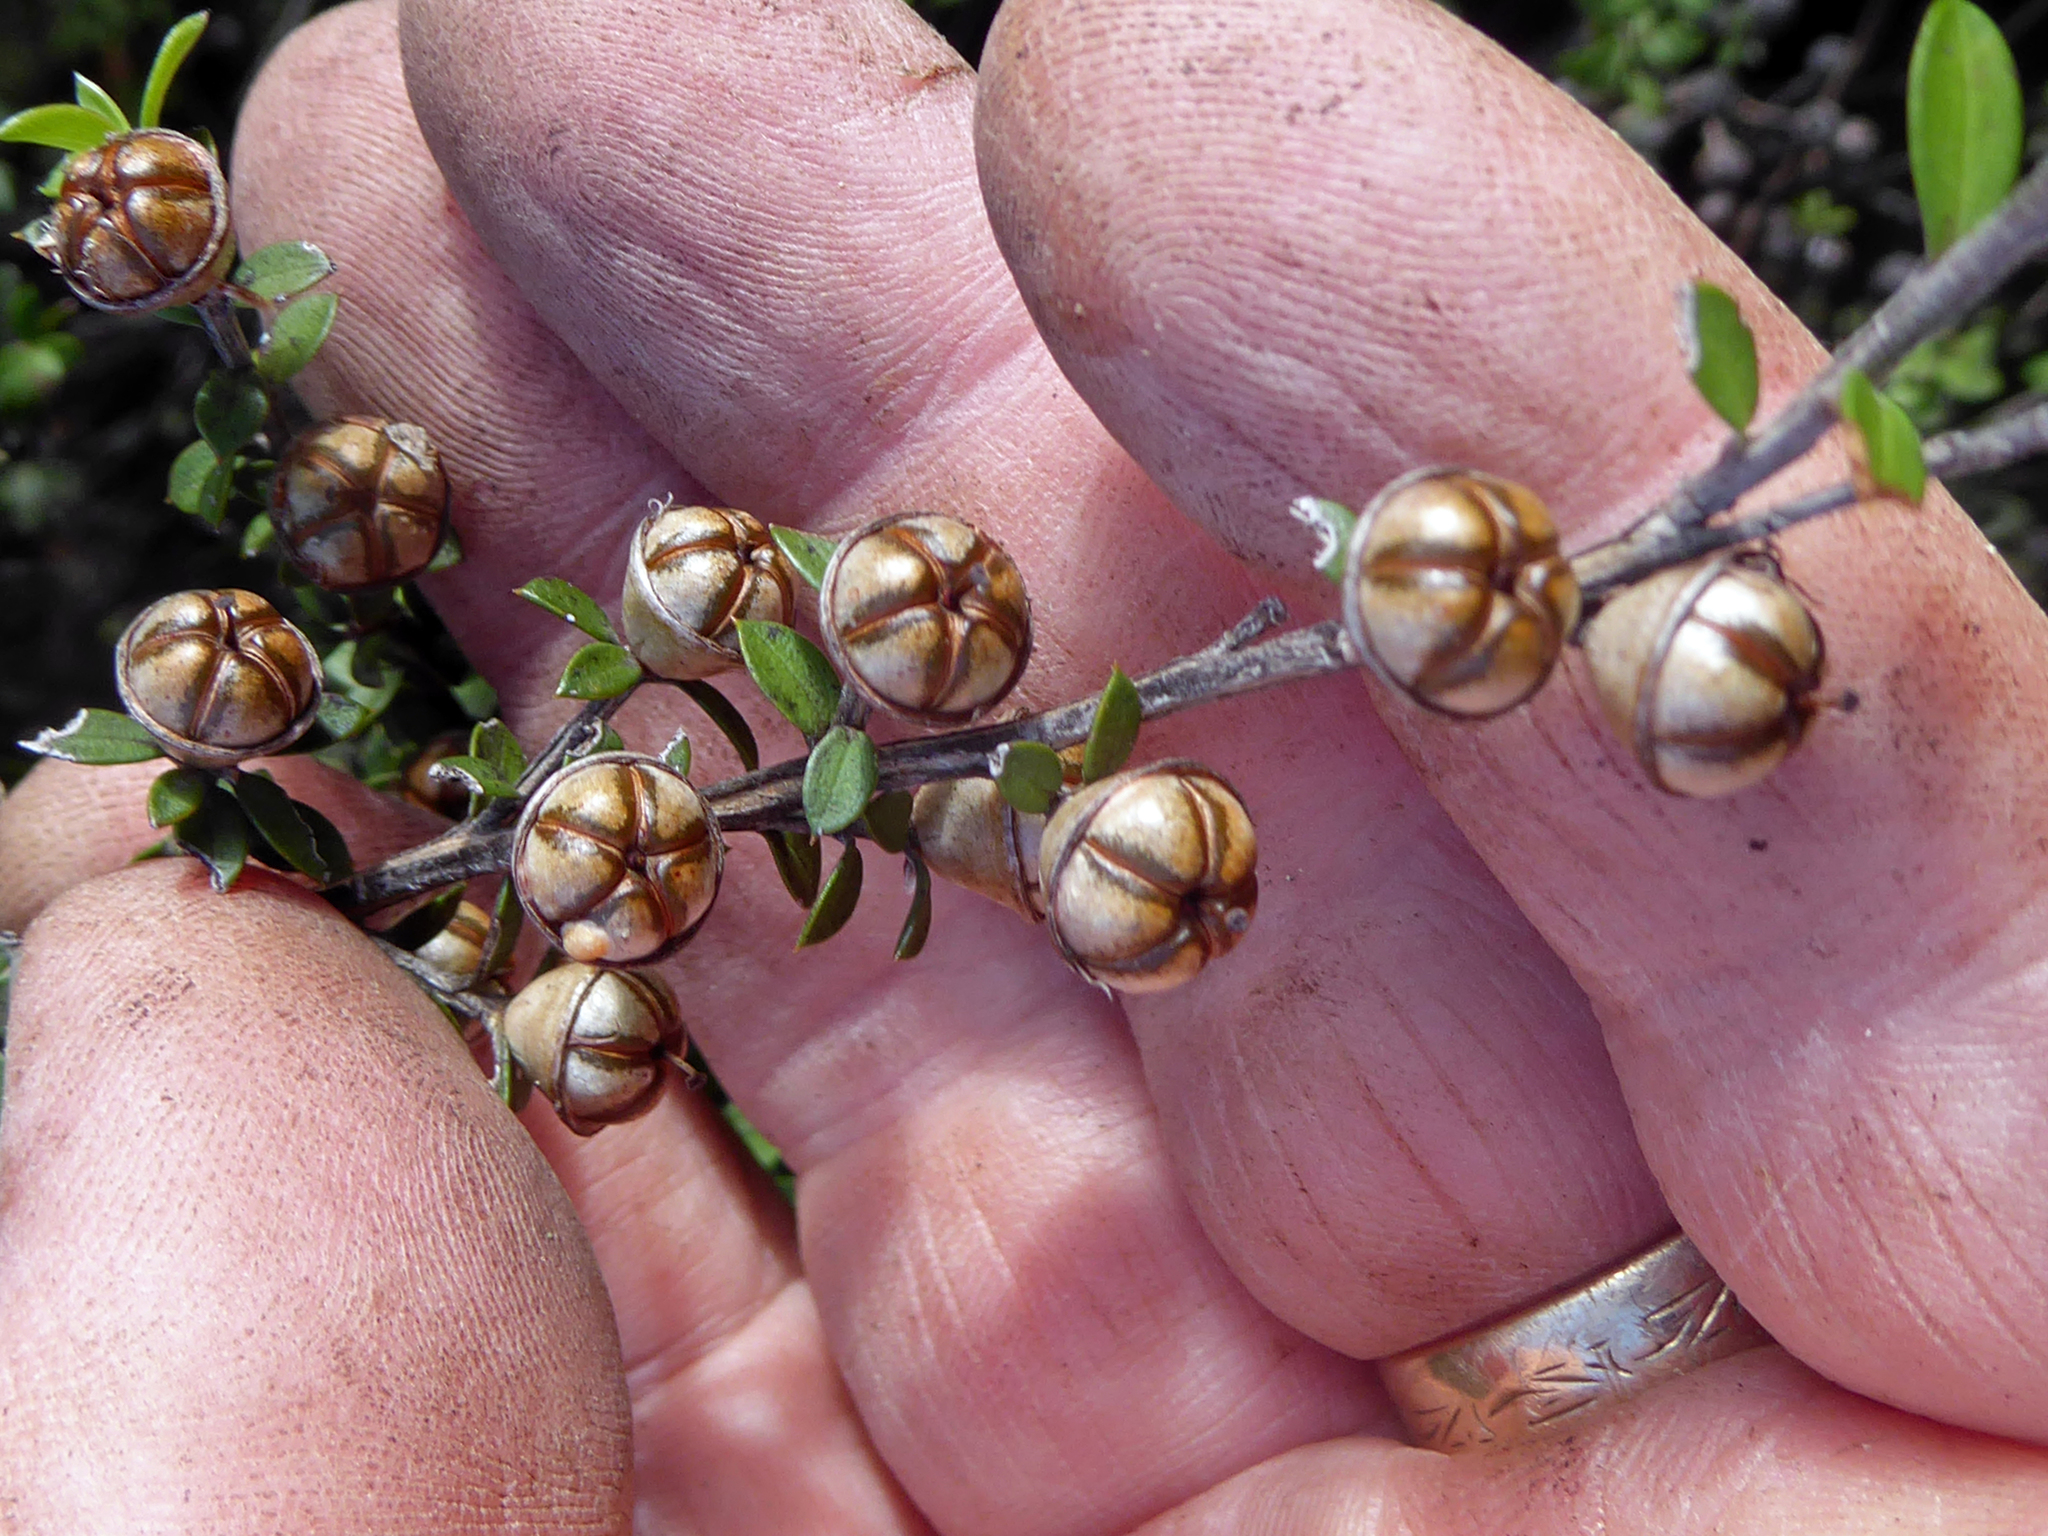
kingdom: Plantae
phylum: Tracheophyta
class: Magnoliopsida
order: Myrtales
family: Myrtaceae
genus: Leptospermum
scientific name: Leptospermum scoparium
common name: Broom tea-tree
